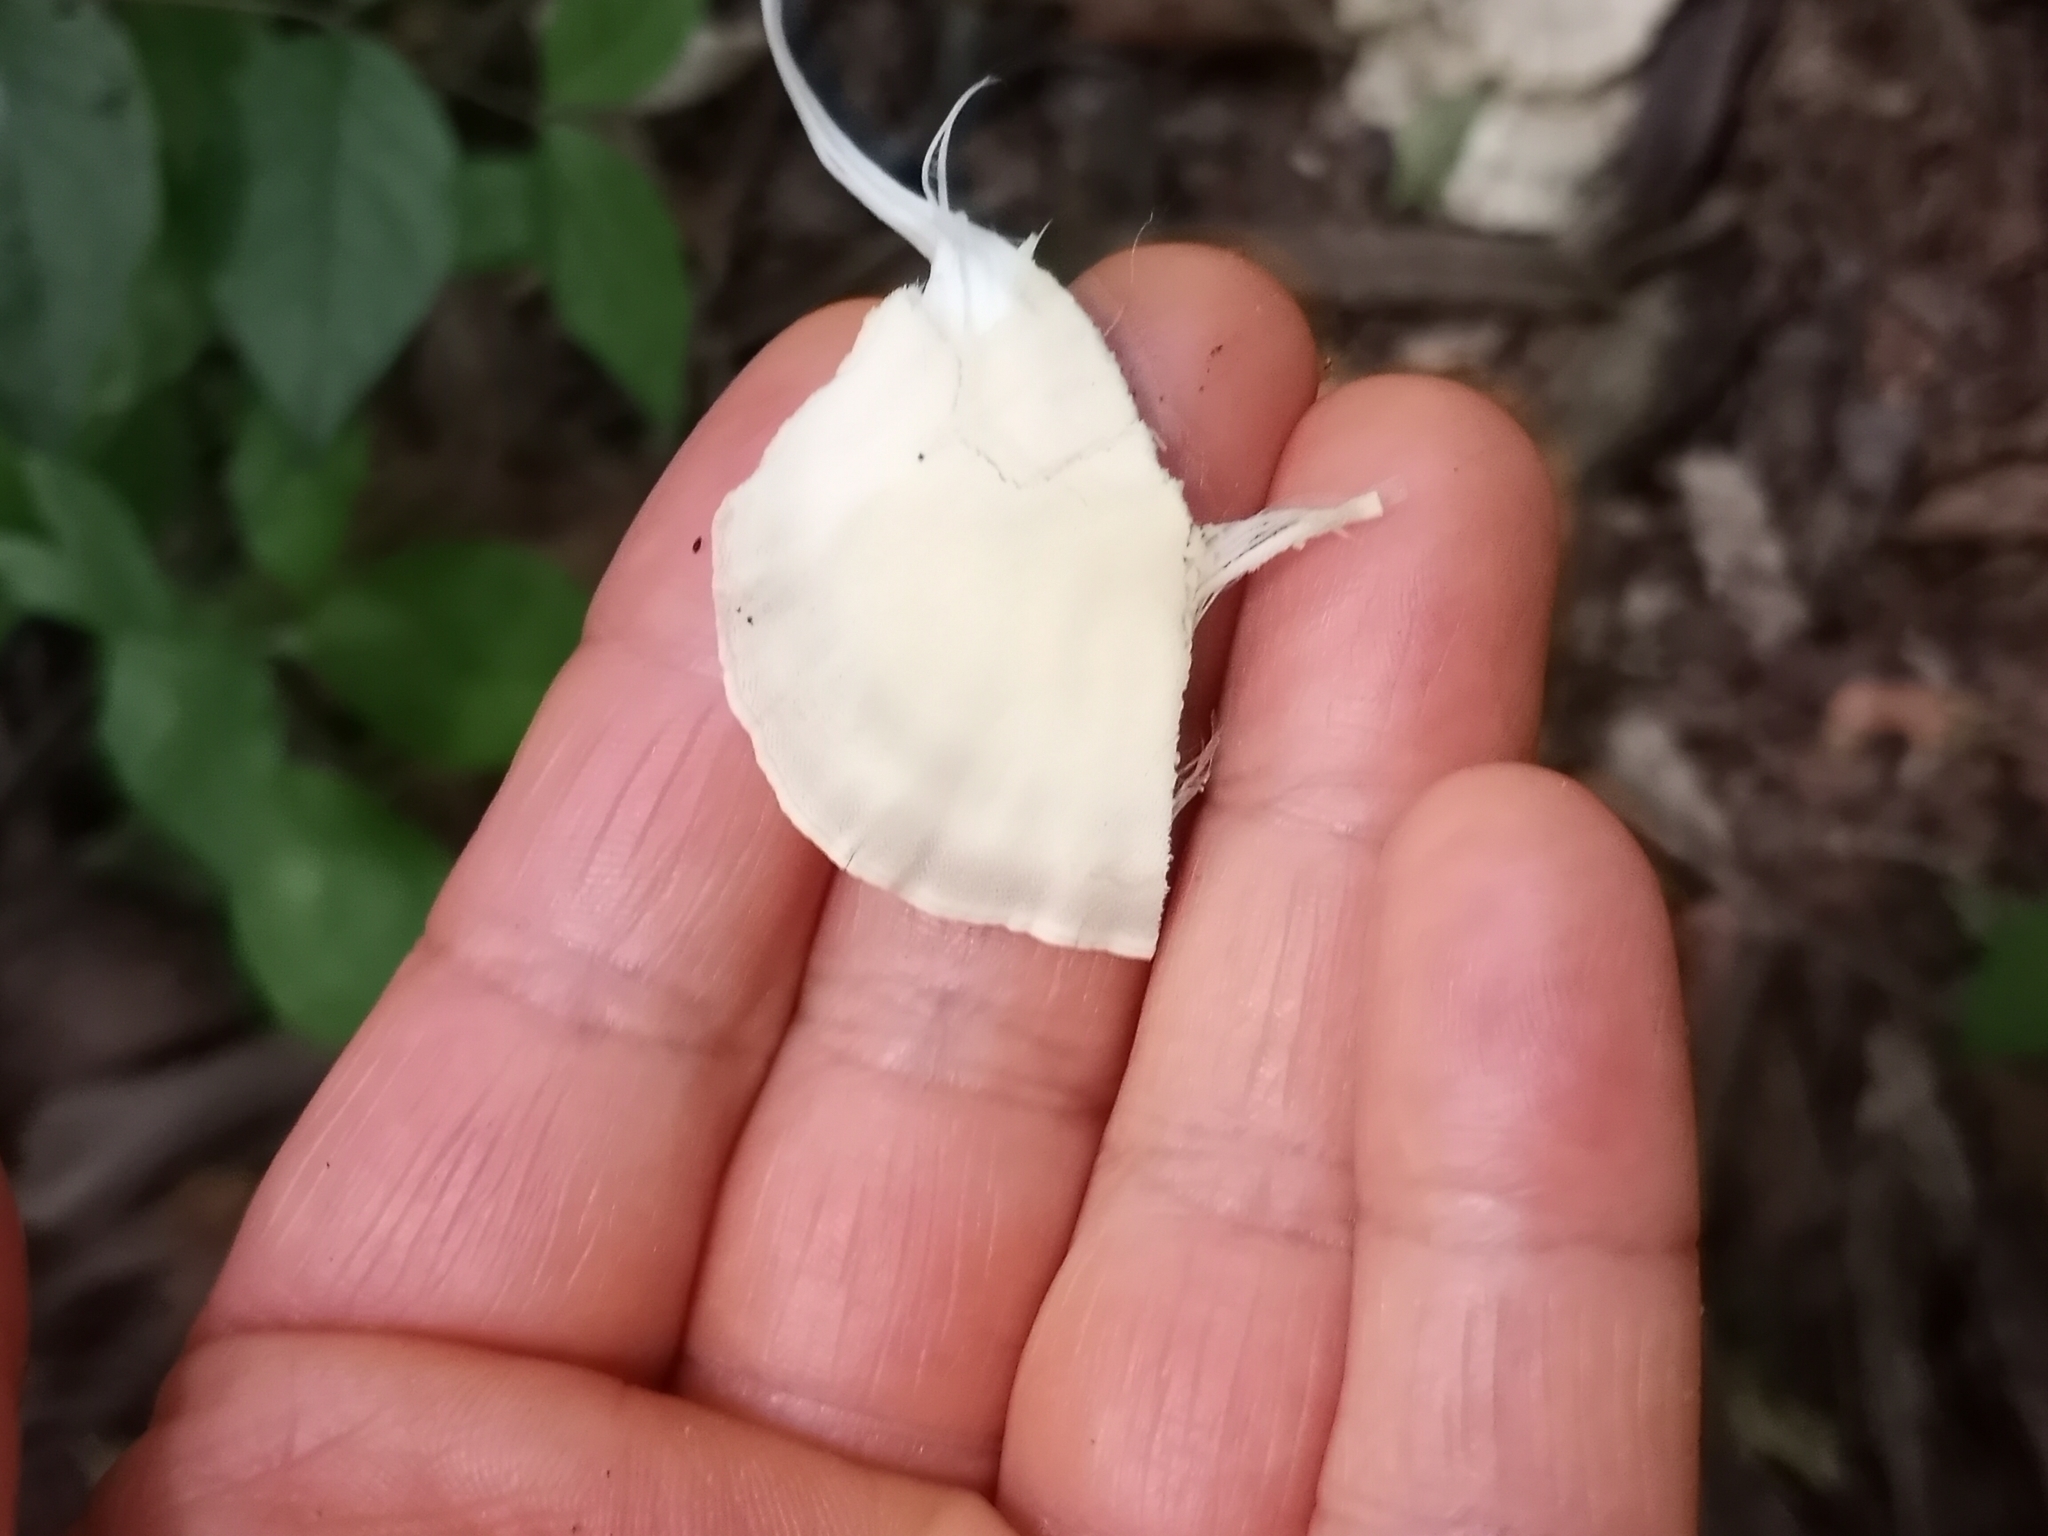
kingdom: Fungi
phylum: Basidiomycota
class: Agaricomycetes
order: Polyporales
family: Meripilaceae
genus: Meripilus
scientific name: Meripilus sumstinei
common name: Black-staining polypore
